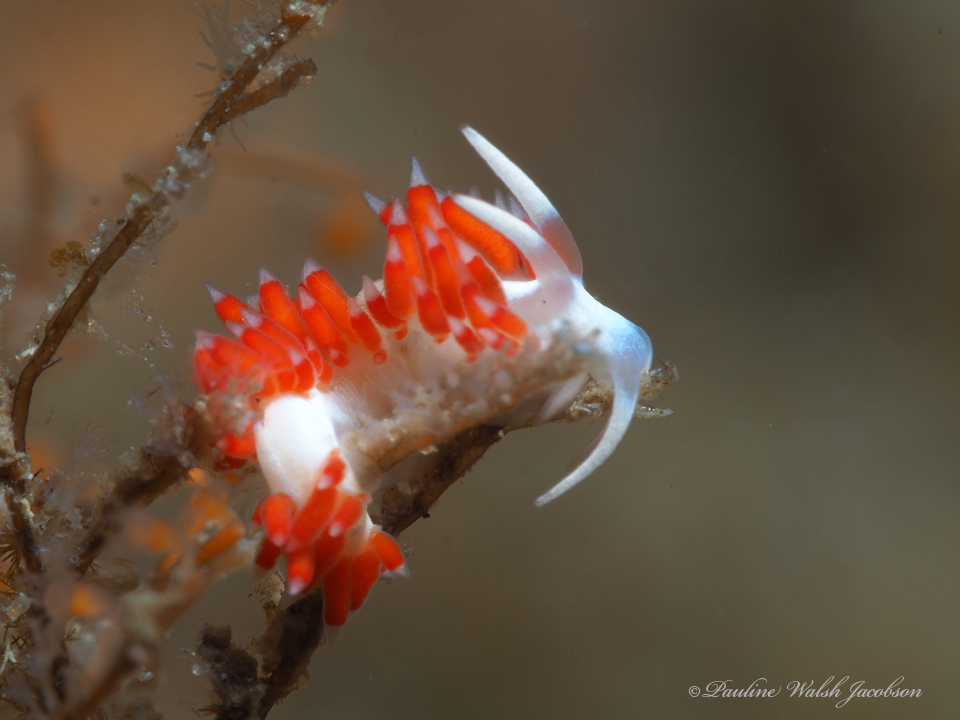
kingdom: Animalia
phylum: Mollusca
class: Gastropoda
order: Nudibranchia
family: Flabellinidae
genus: Flabellina
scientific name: Flabellina dushia
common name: Dushia flabellina
